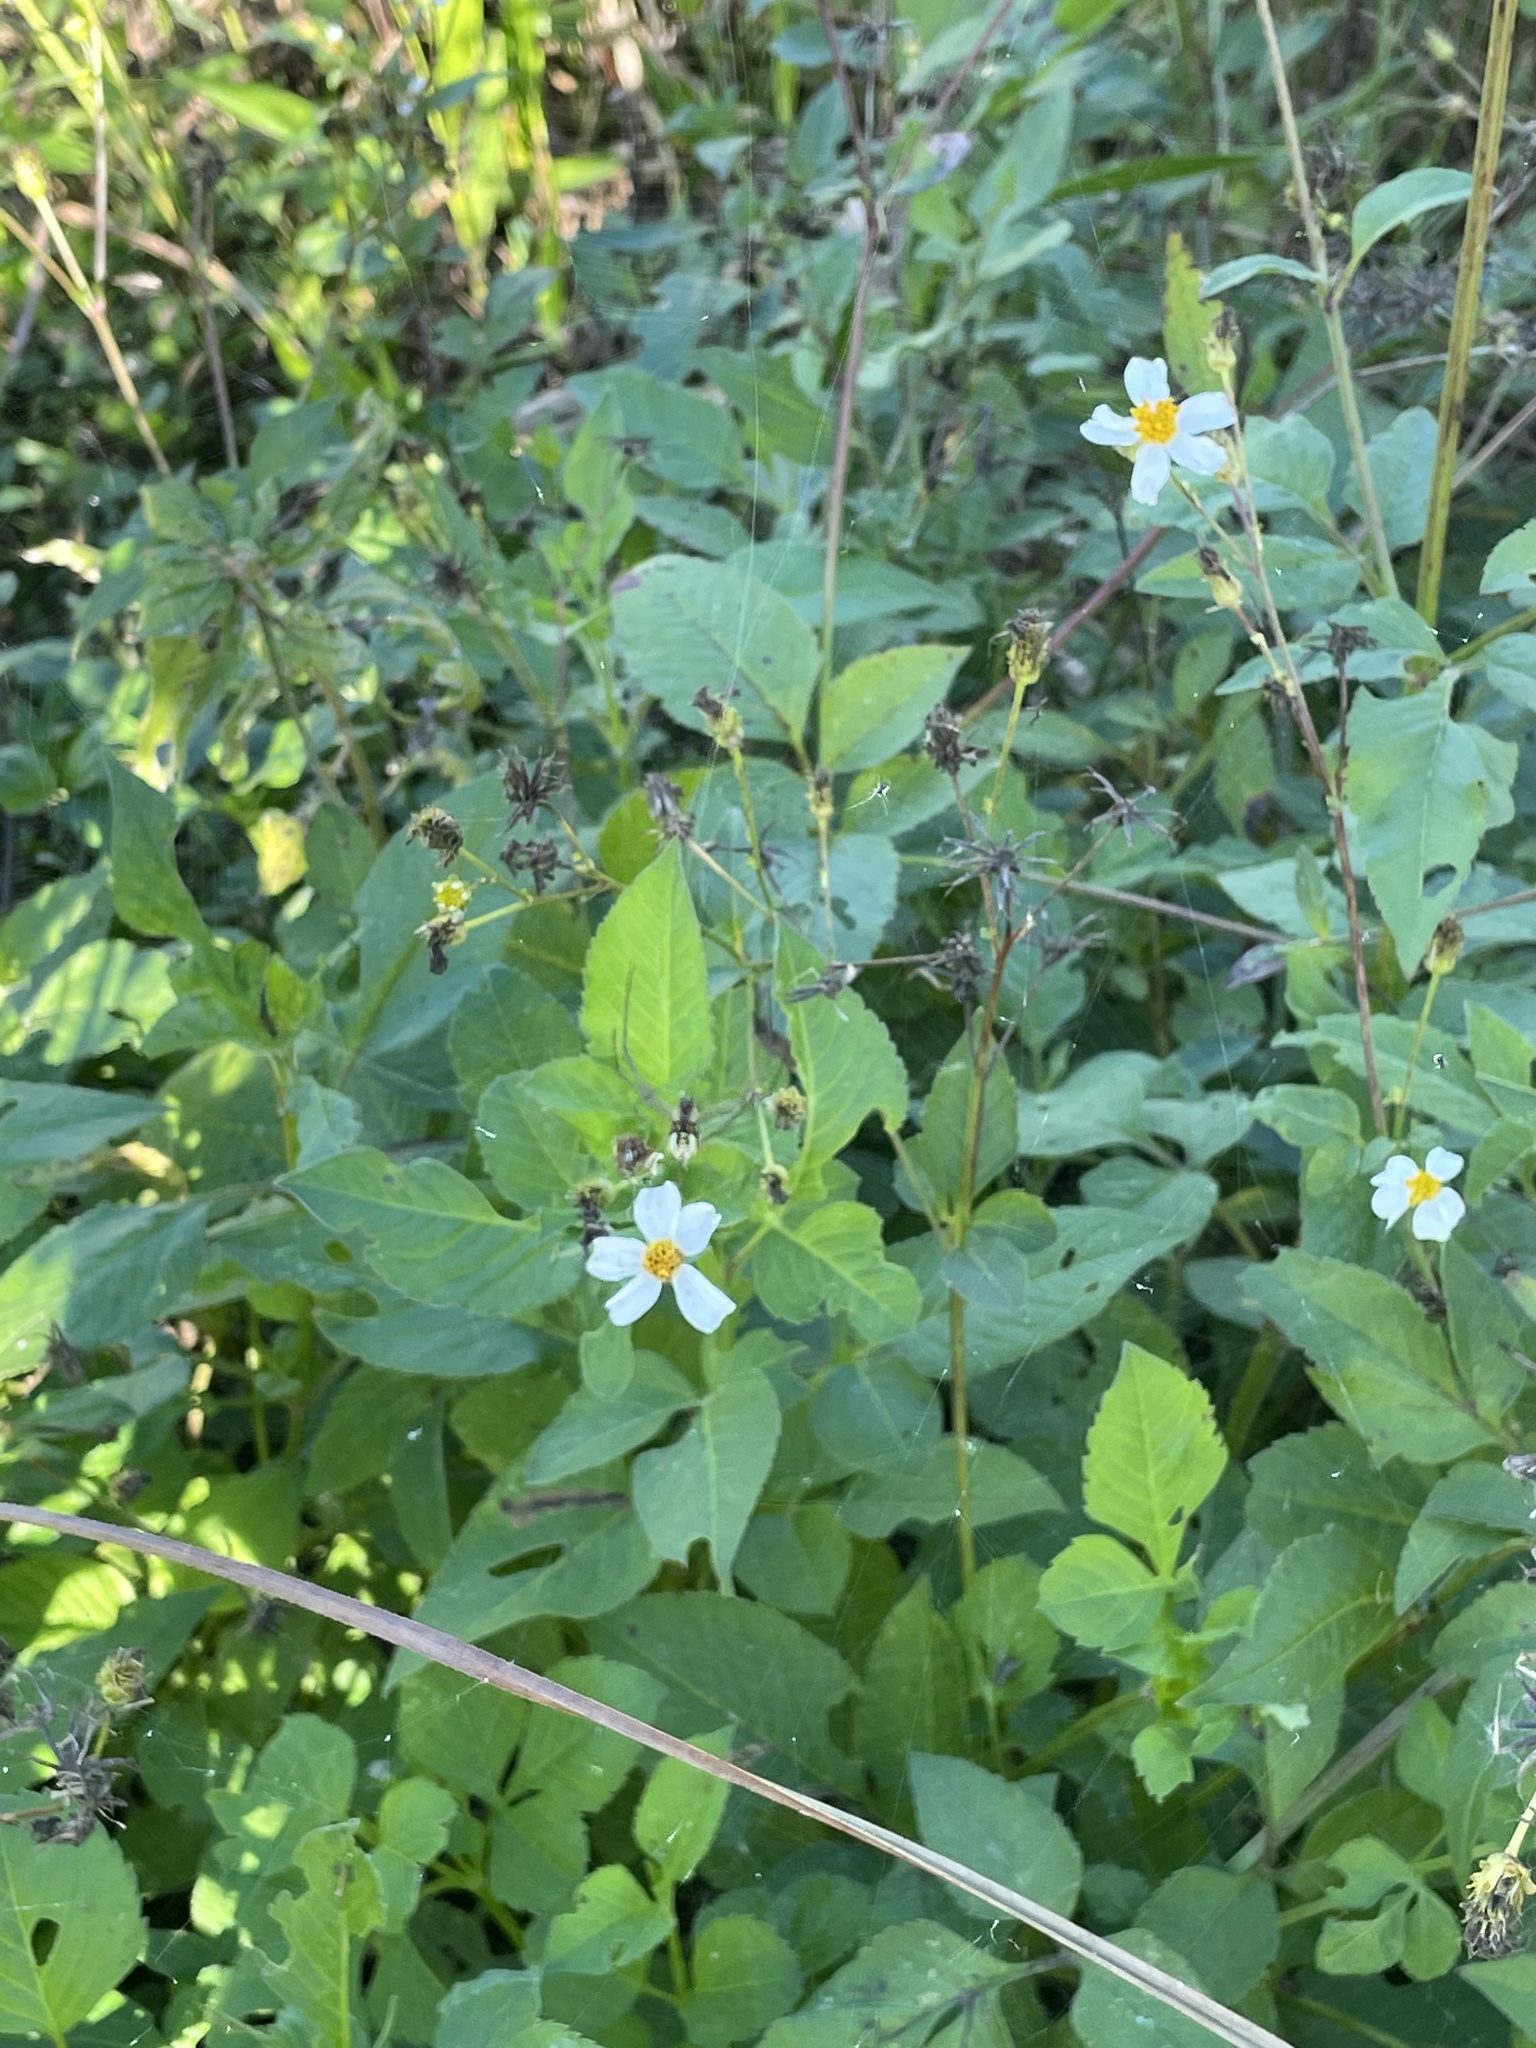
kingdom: Plantae
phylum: Tracheophyta
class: Magnoliopsida
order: Asterales
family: Asteraceae
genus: Bidens
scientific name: Bidens alba
